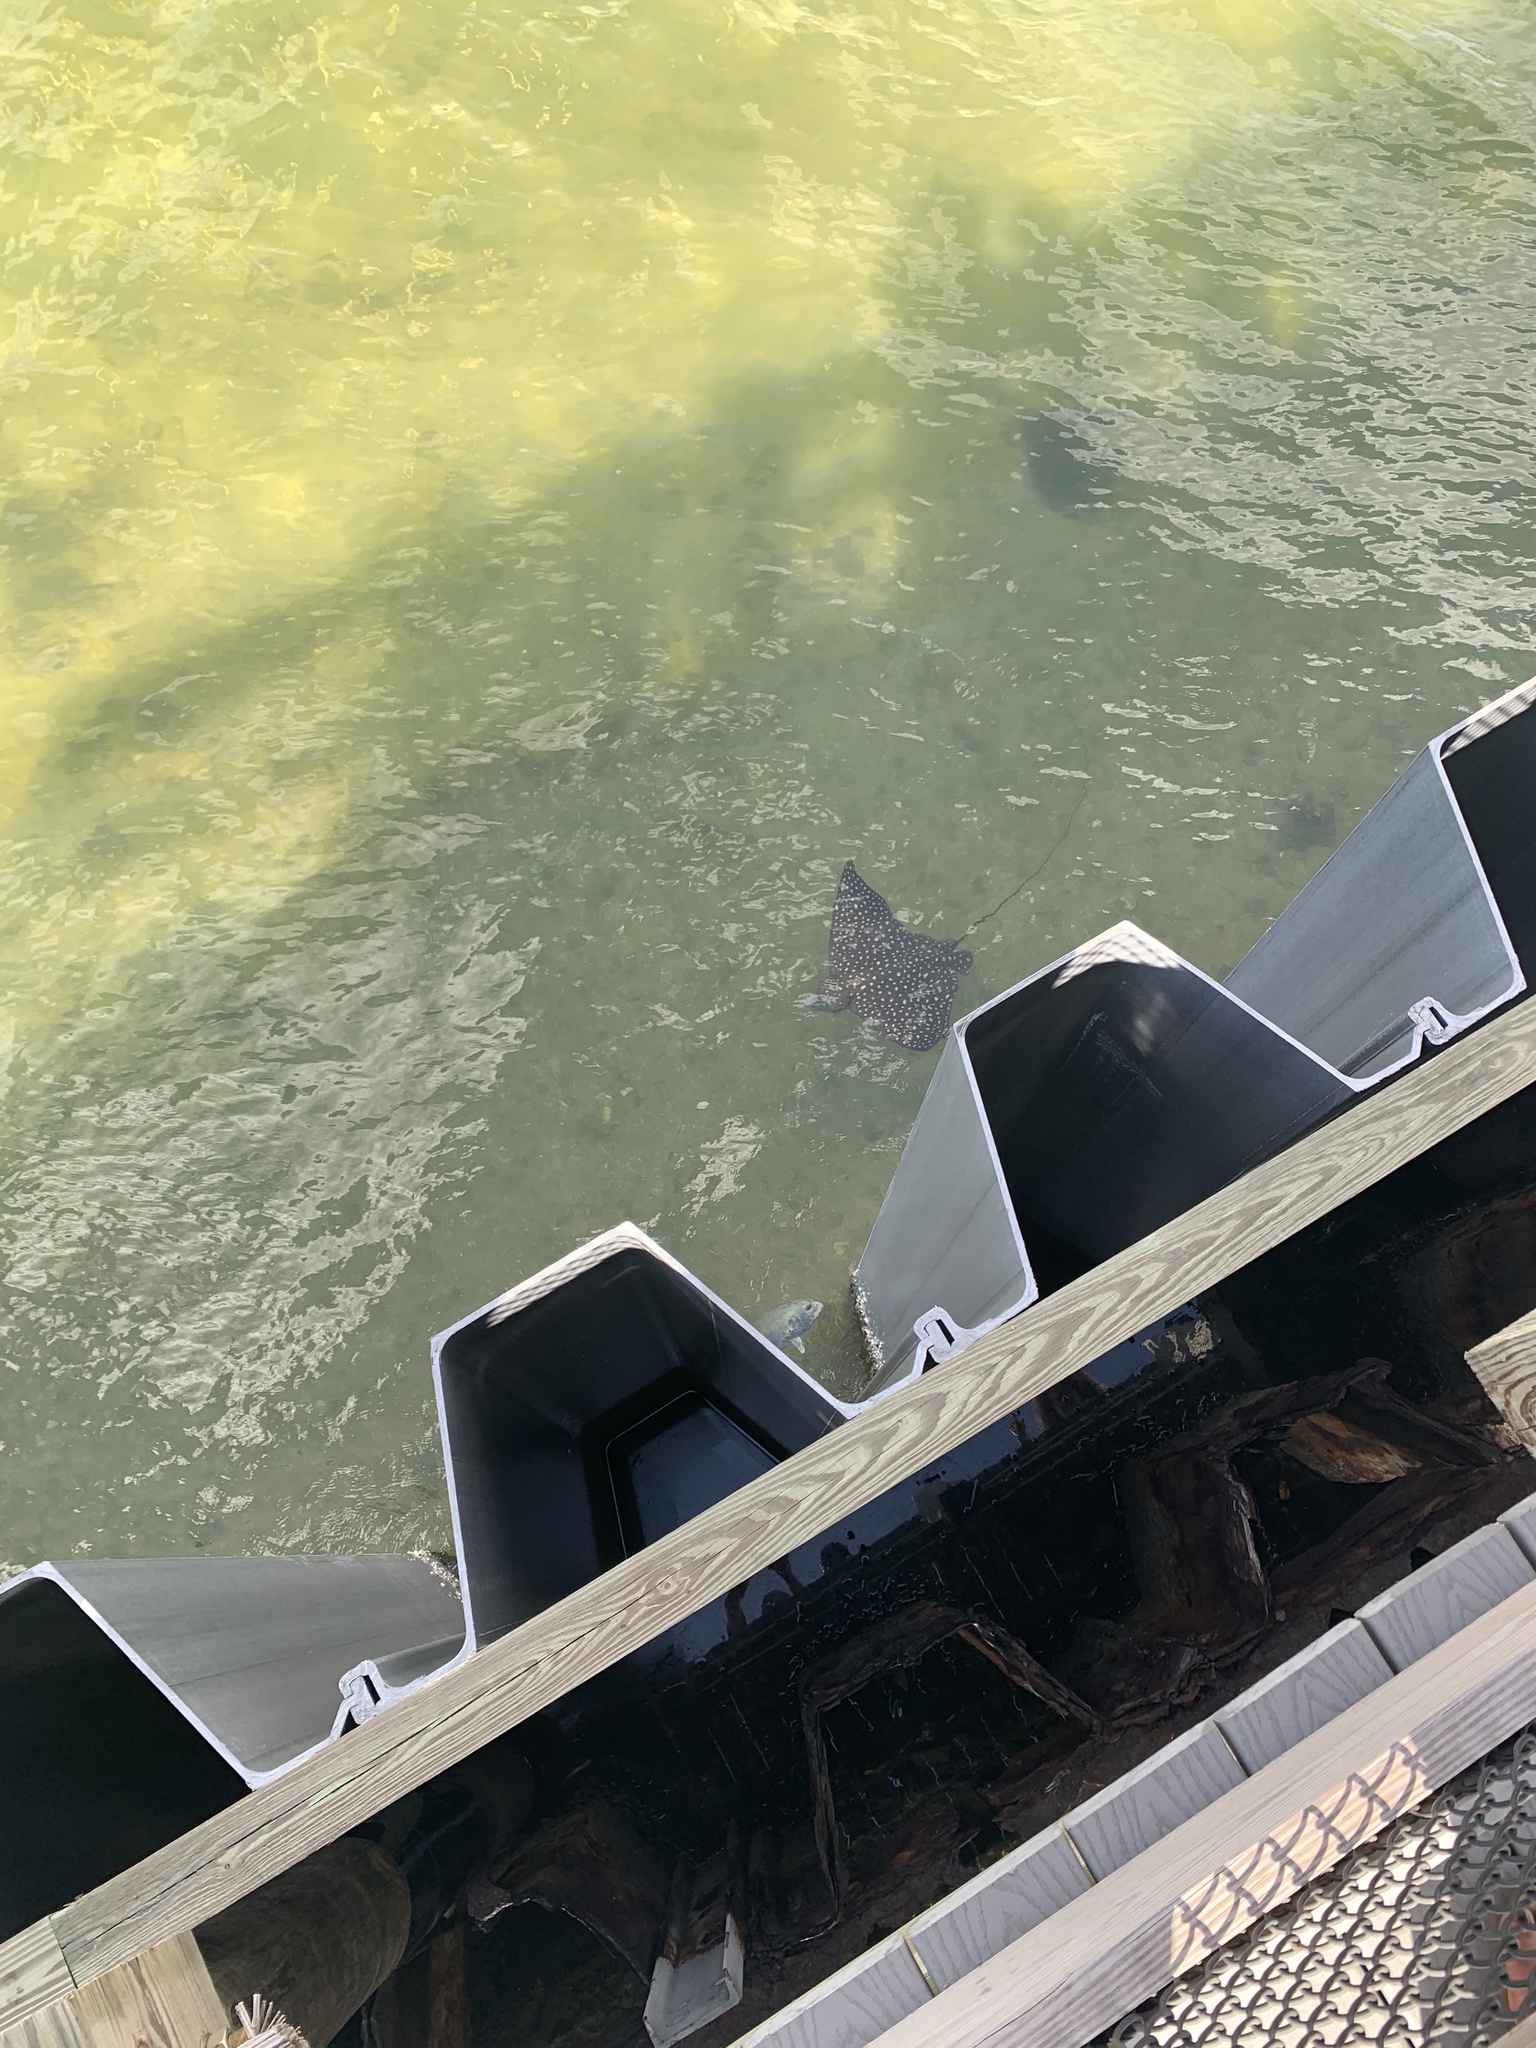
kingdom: Animalia
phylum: Chordata
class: Elasmobranchii
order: Myliobatiformes
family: Myliobatidae
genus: Aetobatus
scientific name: Aetobatus narinari
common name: Spotted eagle ray
